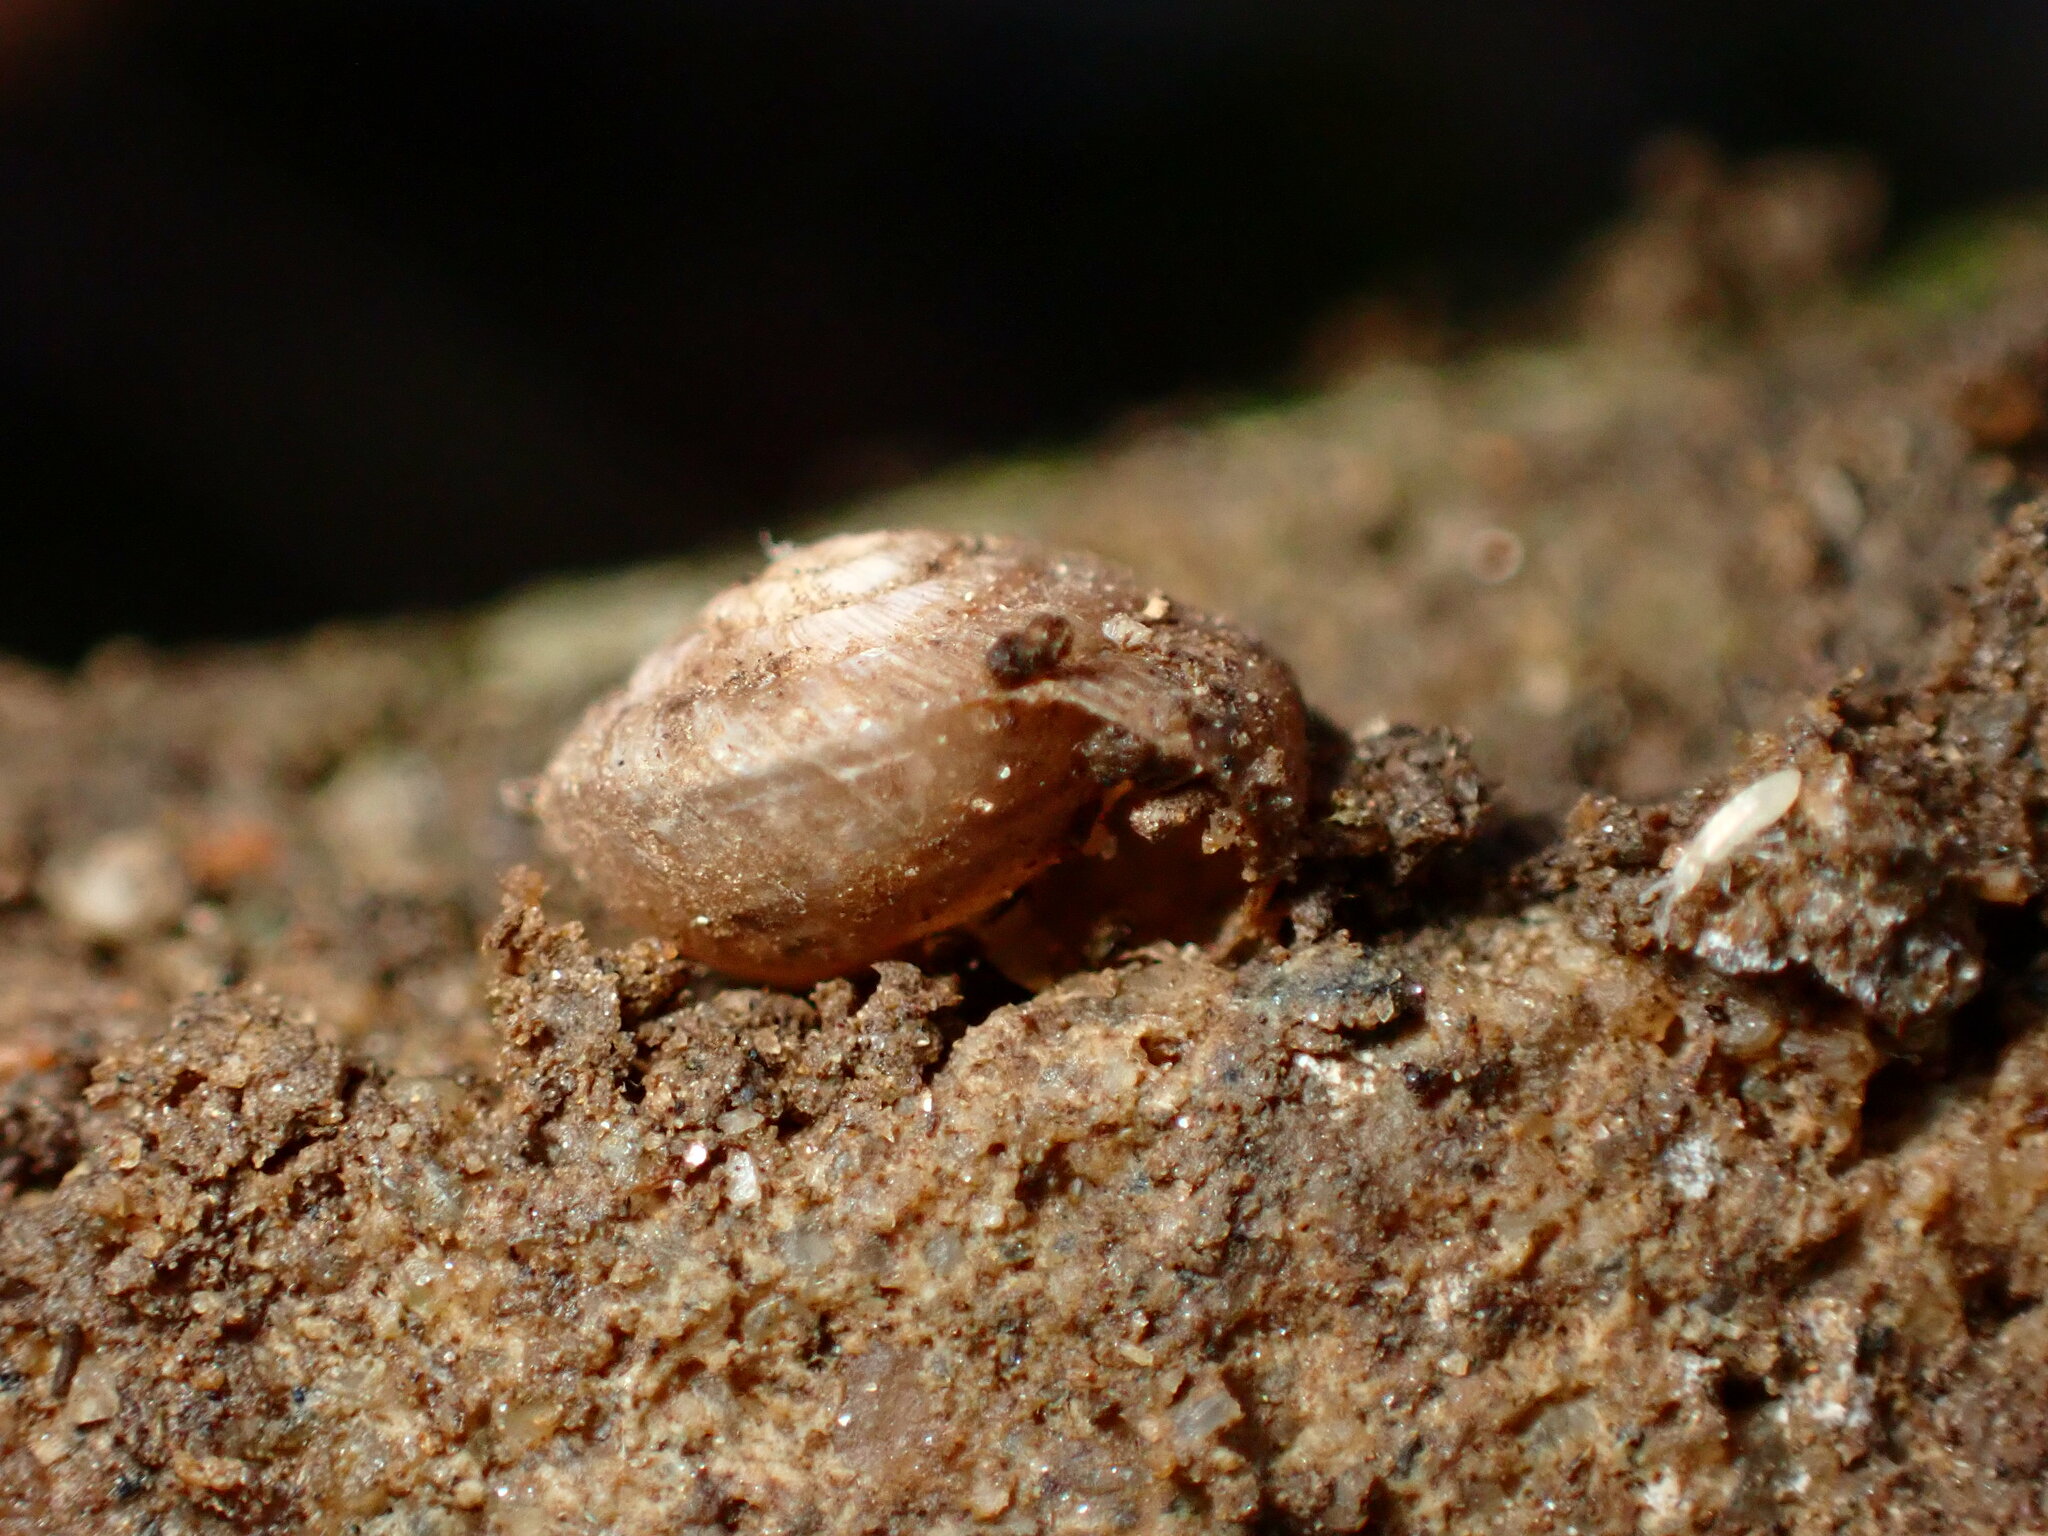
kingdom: Animalia
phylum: Mollusca
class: Gastropoda
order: Stylommatophora
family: Polygyridae
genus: Polygyra
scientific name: Polygyra cereolus
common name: Southern flatcone snail
